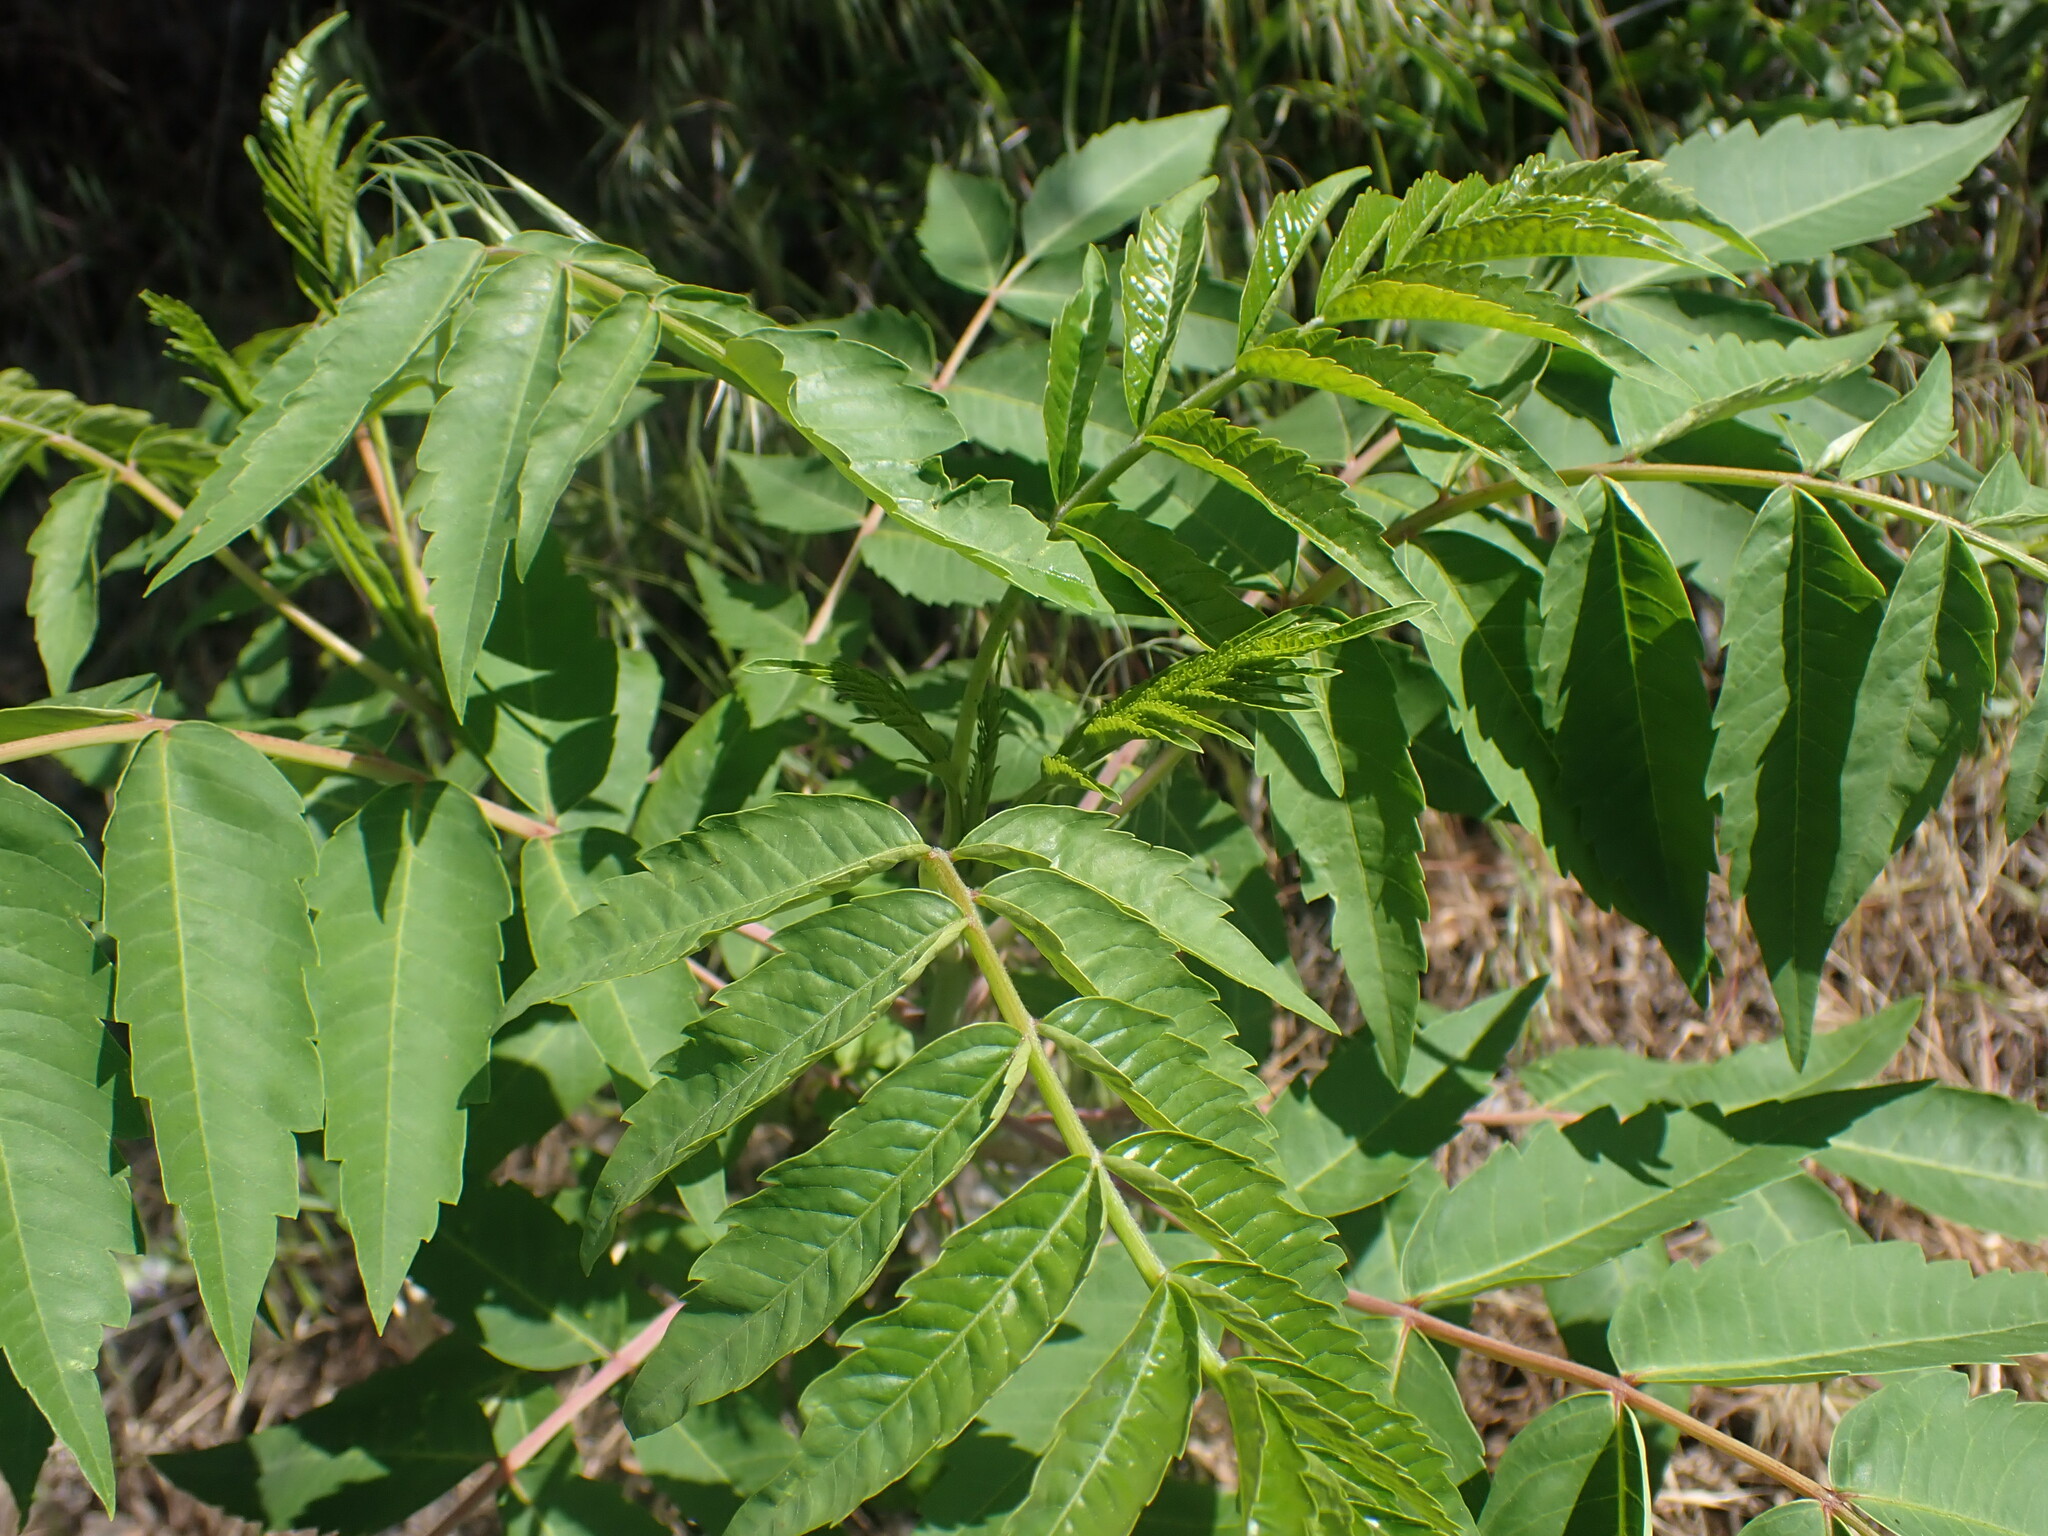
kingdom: Plantae
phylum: Tracheophyta
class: Magnoliopsida
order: Sapindales
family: Anacardiaceae
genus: Rhus
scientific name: Rhus glabra
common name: Scarlet sumac
